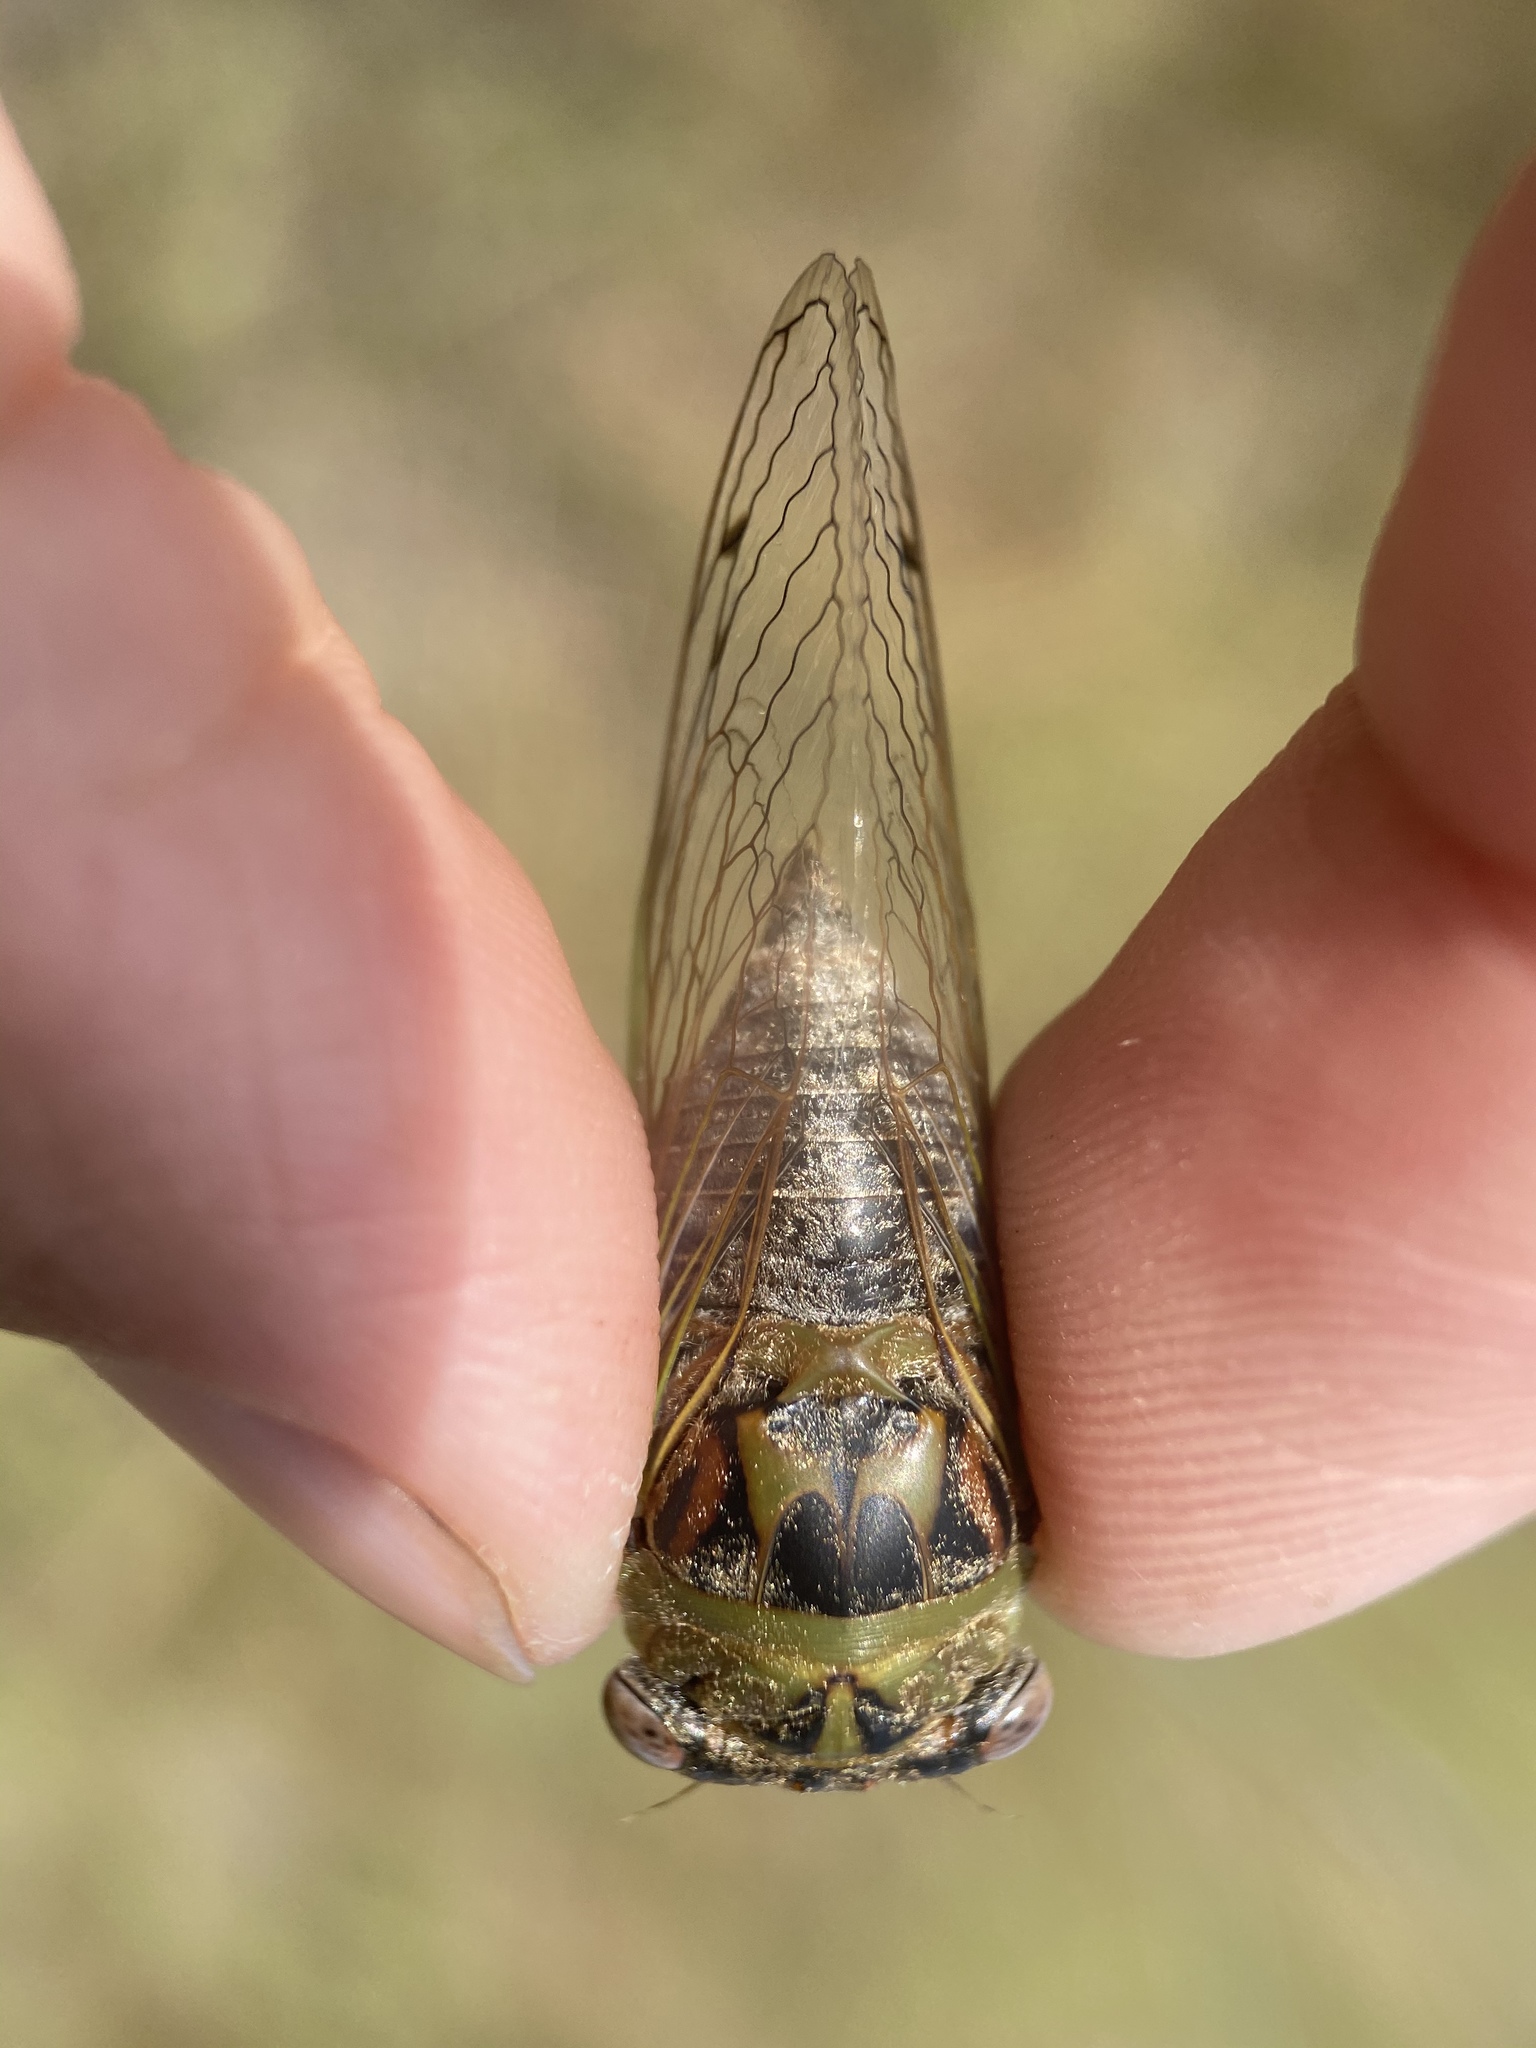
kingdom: Animalia
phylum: Arthropoda
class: Insecta
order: Hemiptera
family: Cicadidae
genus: Neotibicen
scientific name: Neotibicen aurifer
